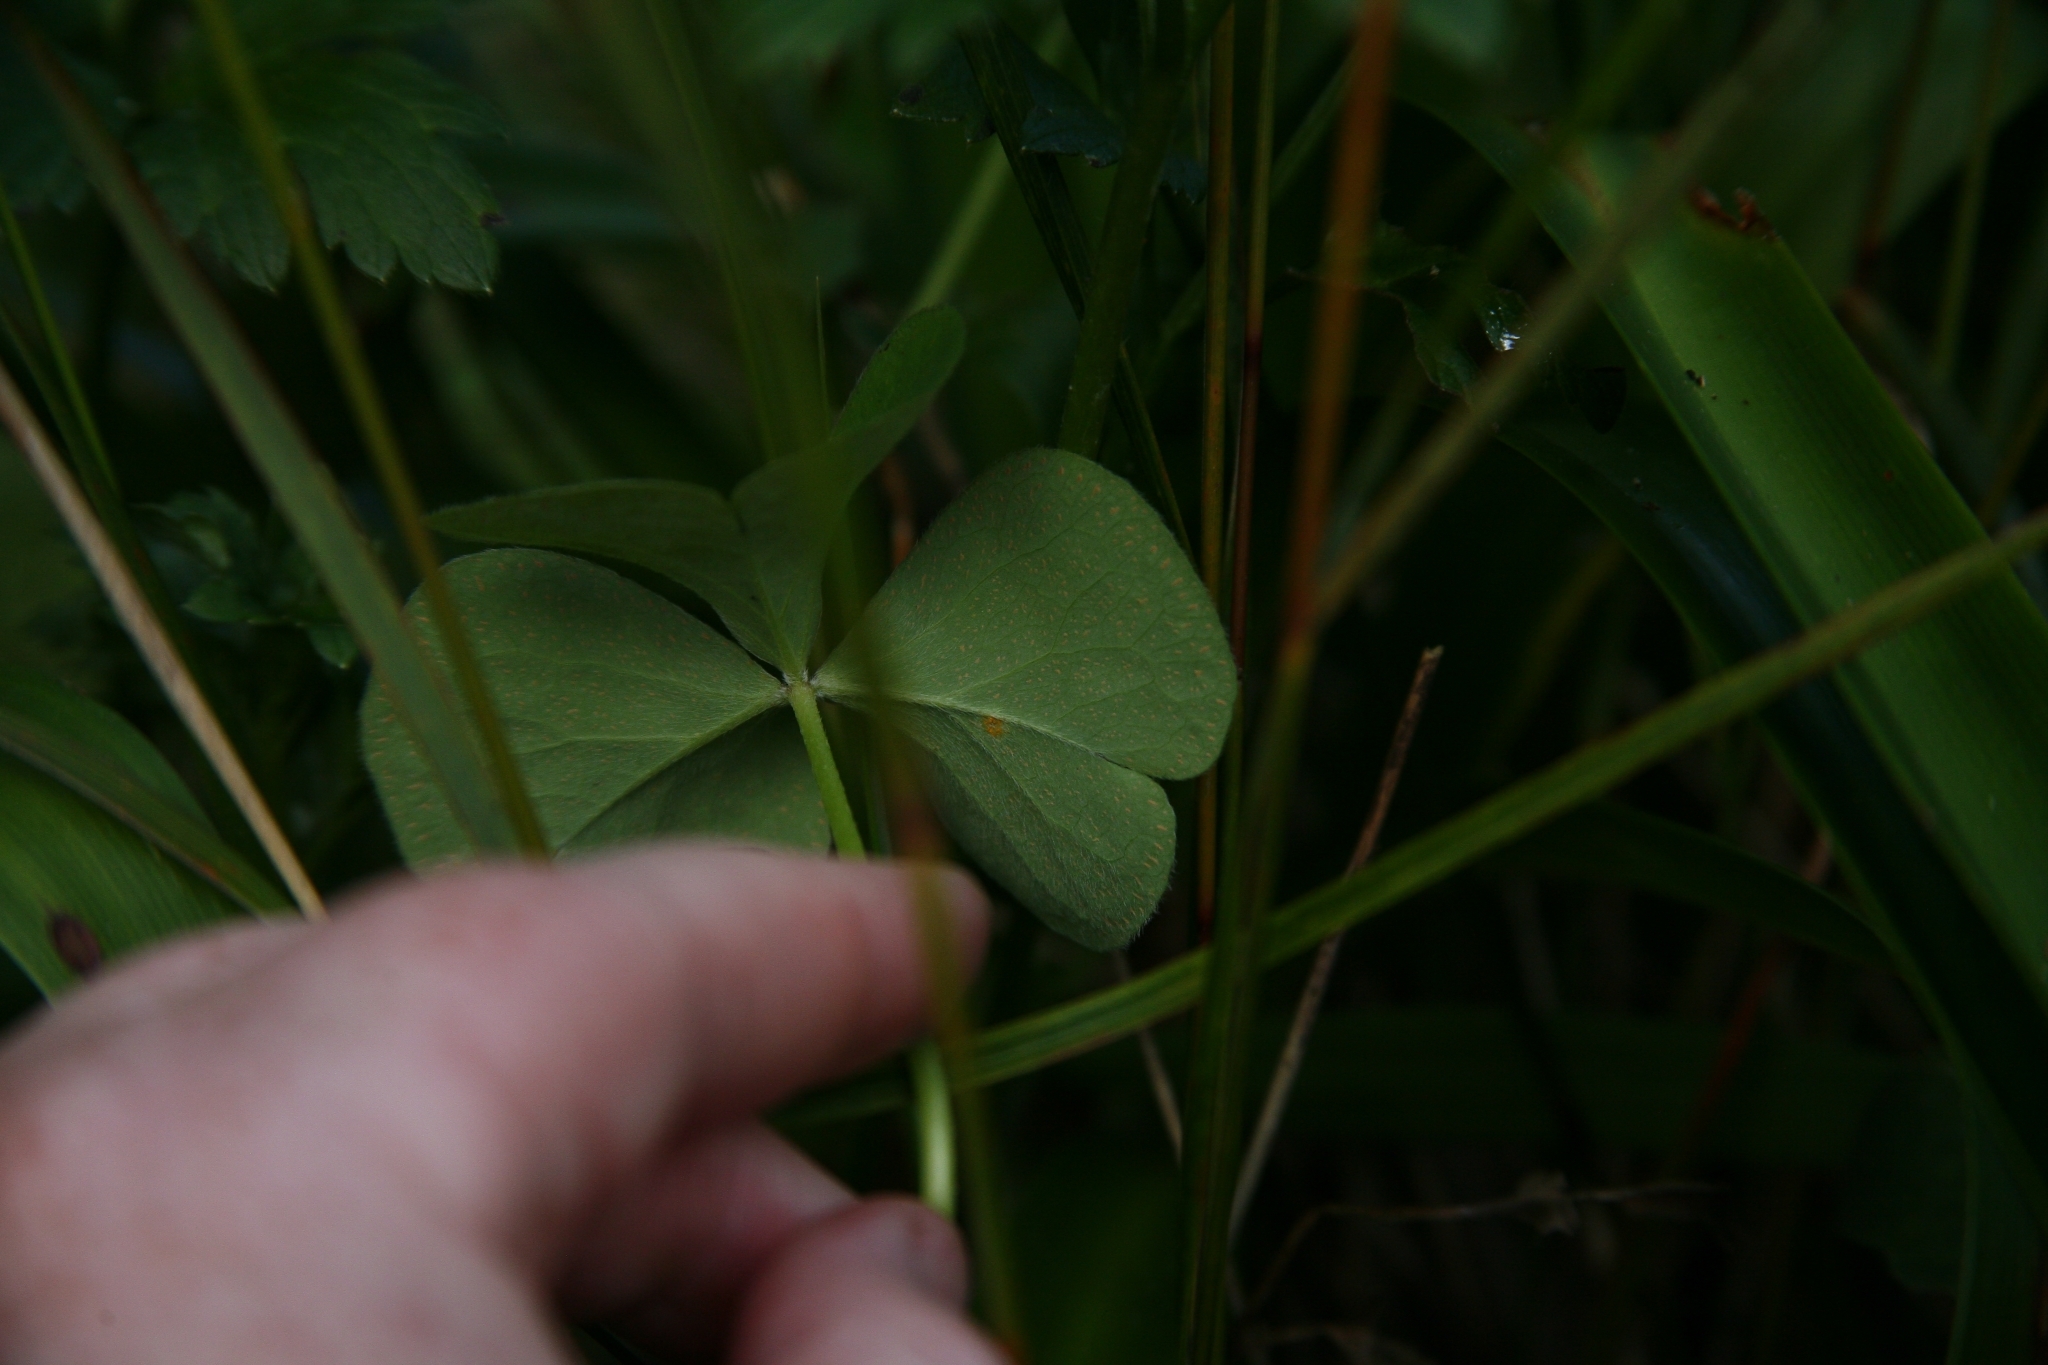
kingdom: Plantae
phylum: Tracheophyta
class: Magnoliopsida
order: Oxalidales
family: Oxalidaceae
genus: Oxalis
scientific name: Oxalis articulata
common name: Pink-sorrel
